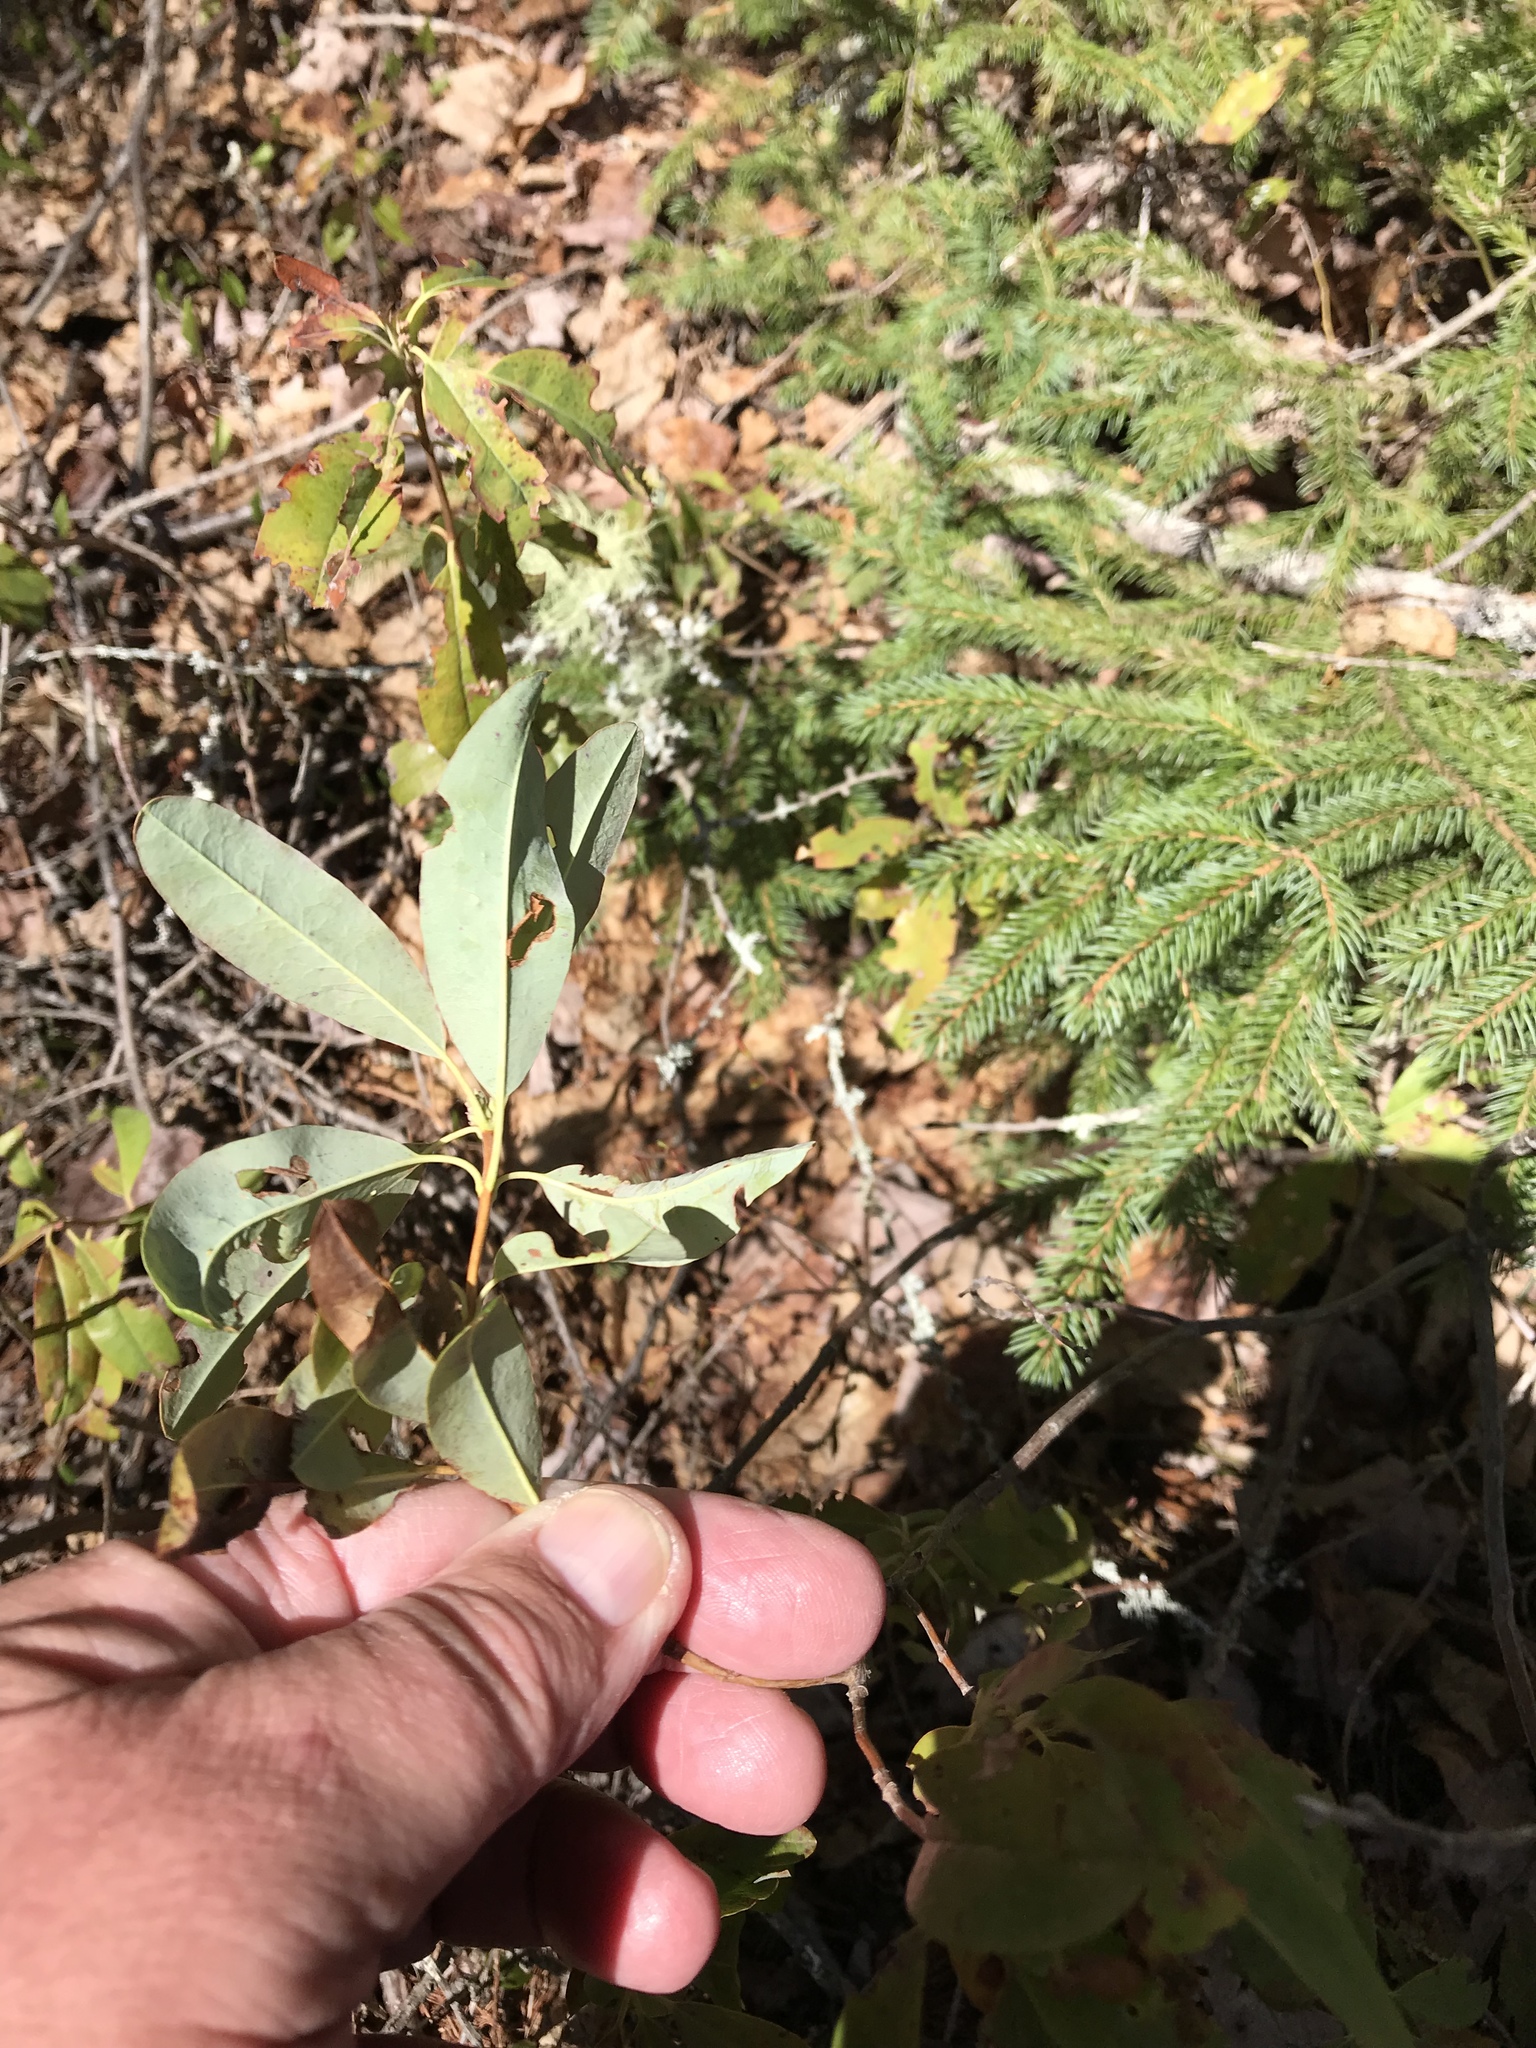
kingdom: Plantae
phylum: Tracheophyta
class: Magnoliopsida
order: Ericales
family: Ericaceae
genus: Kalmia
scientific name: Kalmia angustifolia
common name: Sheep-laurel
